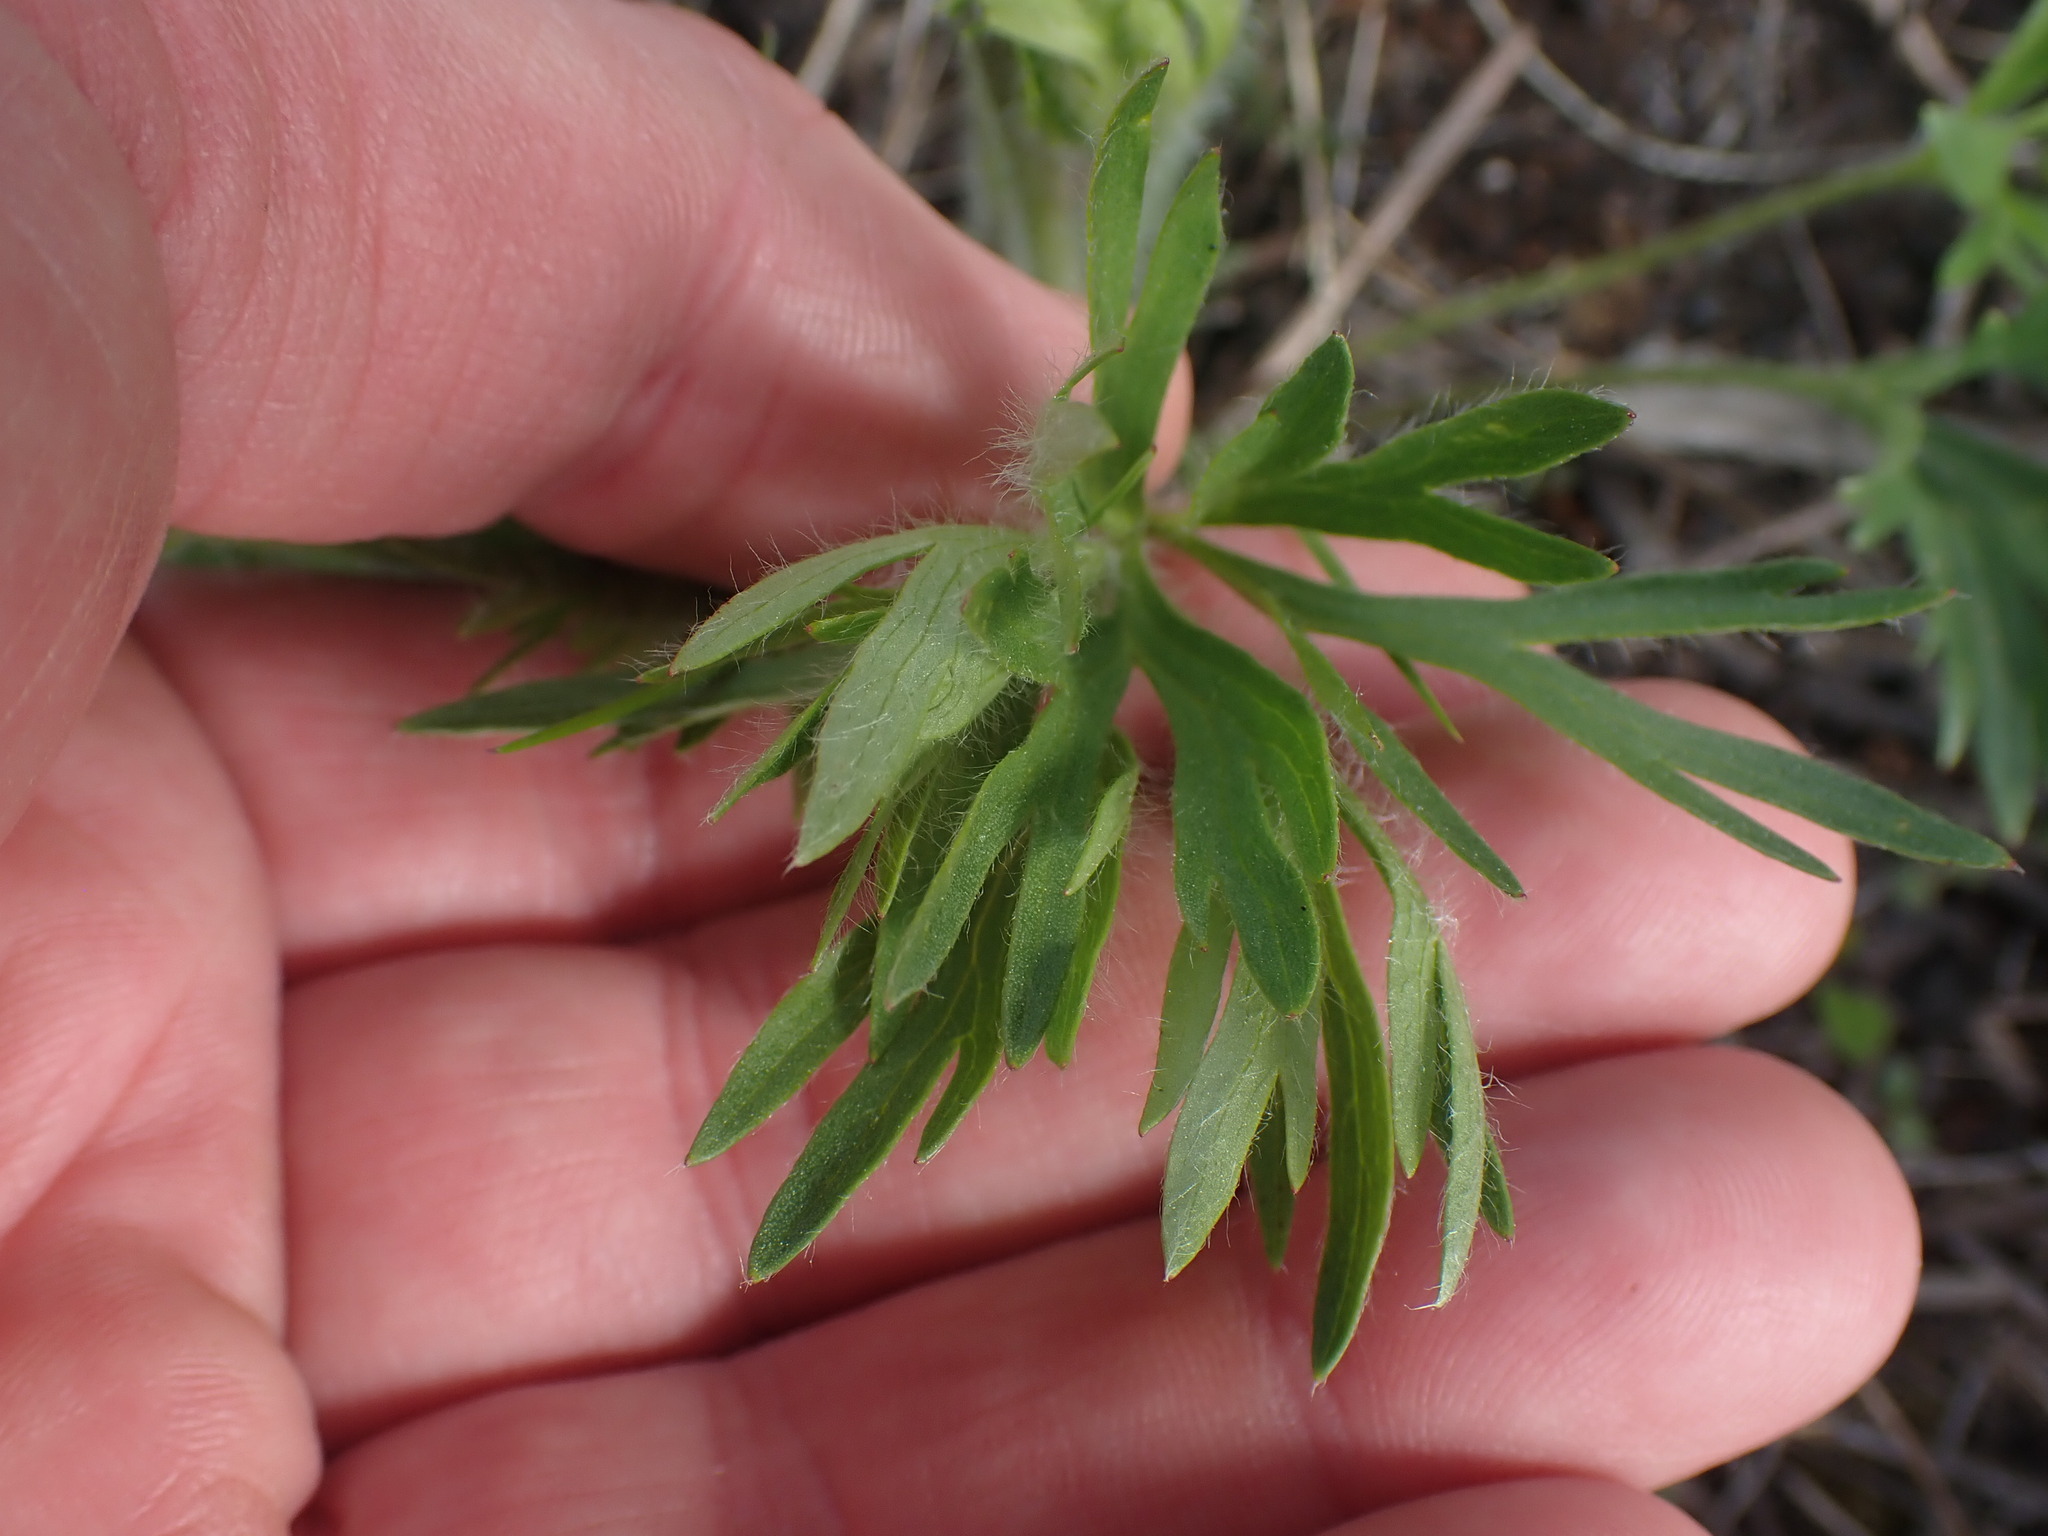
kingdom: Plantae
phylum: Tracheophyta
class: Magnoliopsida
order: Ranunculales
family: Ranunculaceae
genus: Anemone
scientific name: Anemone multifida
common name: Bird's-foot anemone
